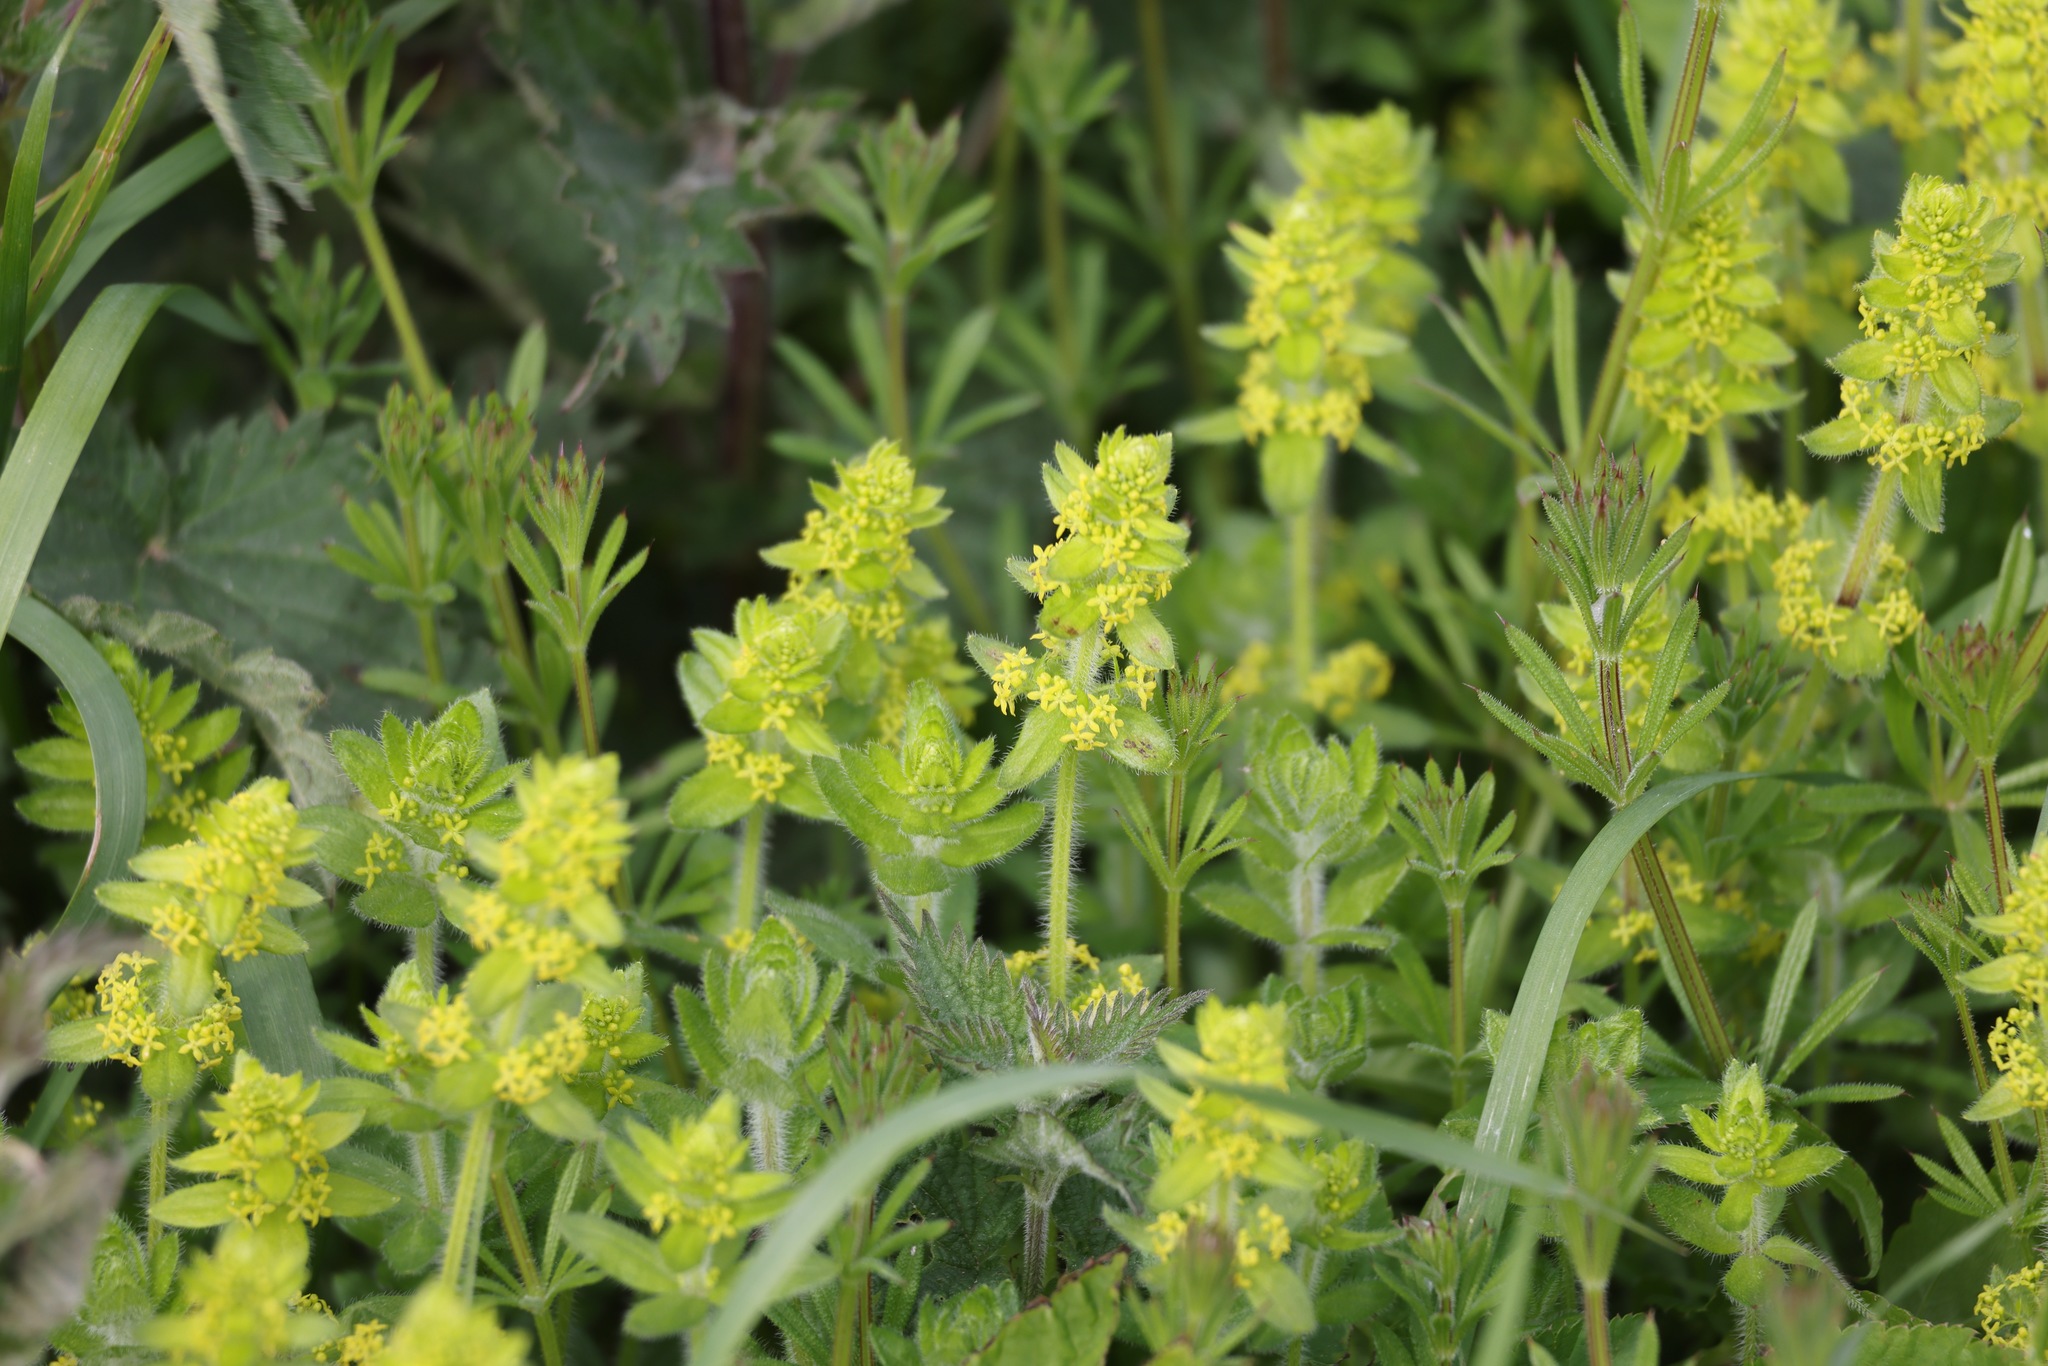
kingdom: Plantae
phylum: Tracheophyta
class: Magnoliopsida
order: Gentianales
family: Rubiaceae
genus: Cruciata
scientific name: Cruciata laevipes
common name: Crosswort
